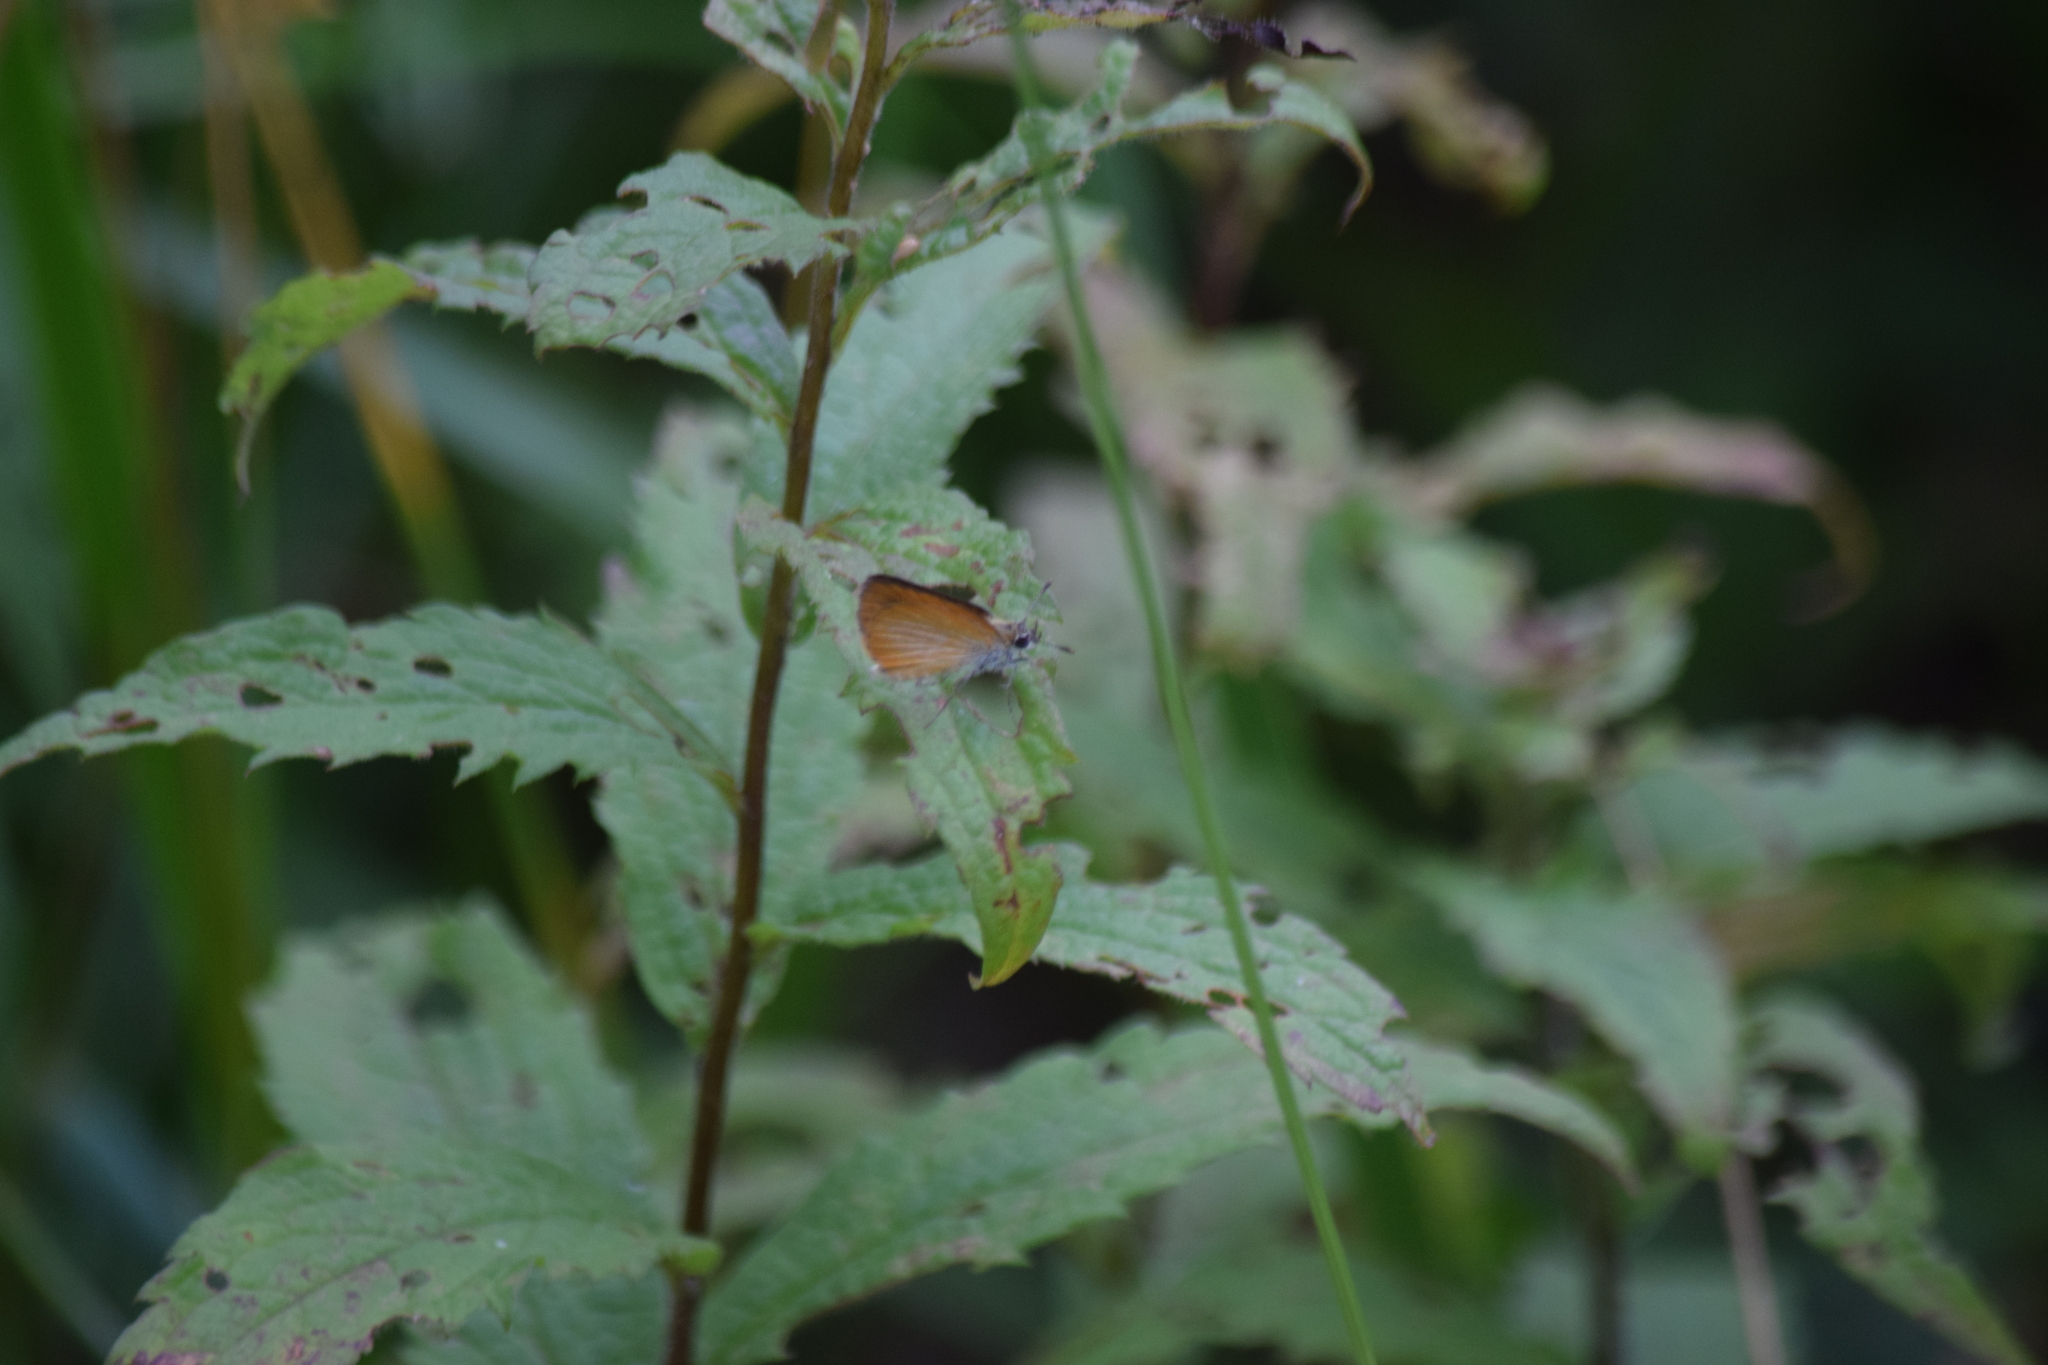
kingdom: Animalia
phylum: Arthropoda
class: Insecta
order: Lepidoptera
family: Hesperiidae
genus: Ancyloxypha
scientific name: Ancyloxypha numitor
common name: Least skipper
